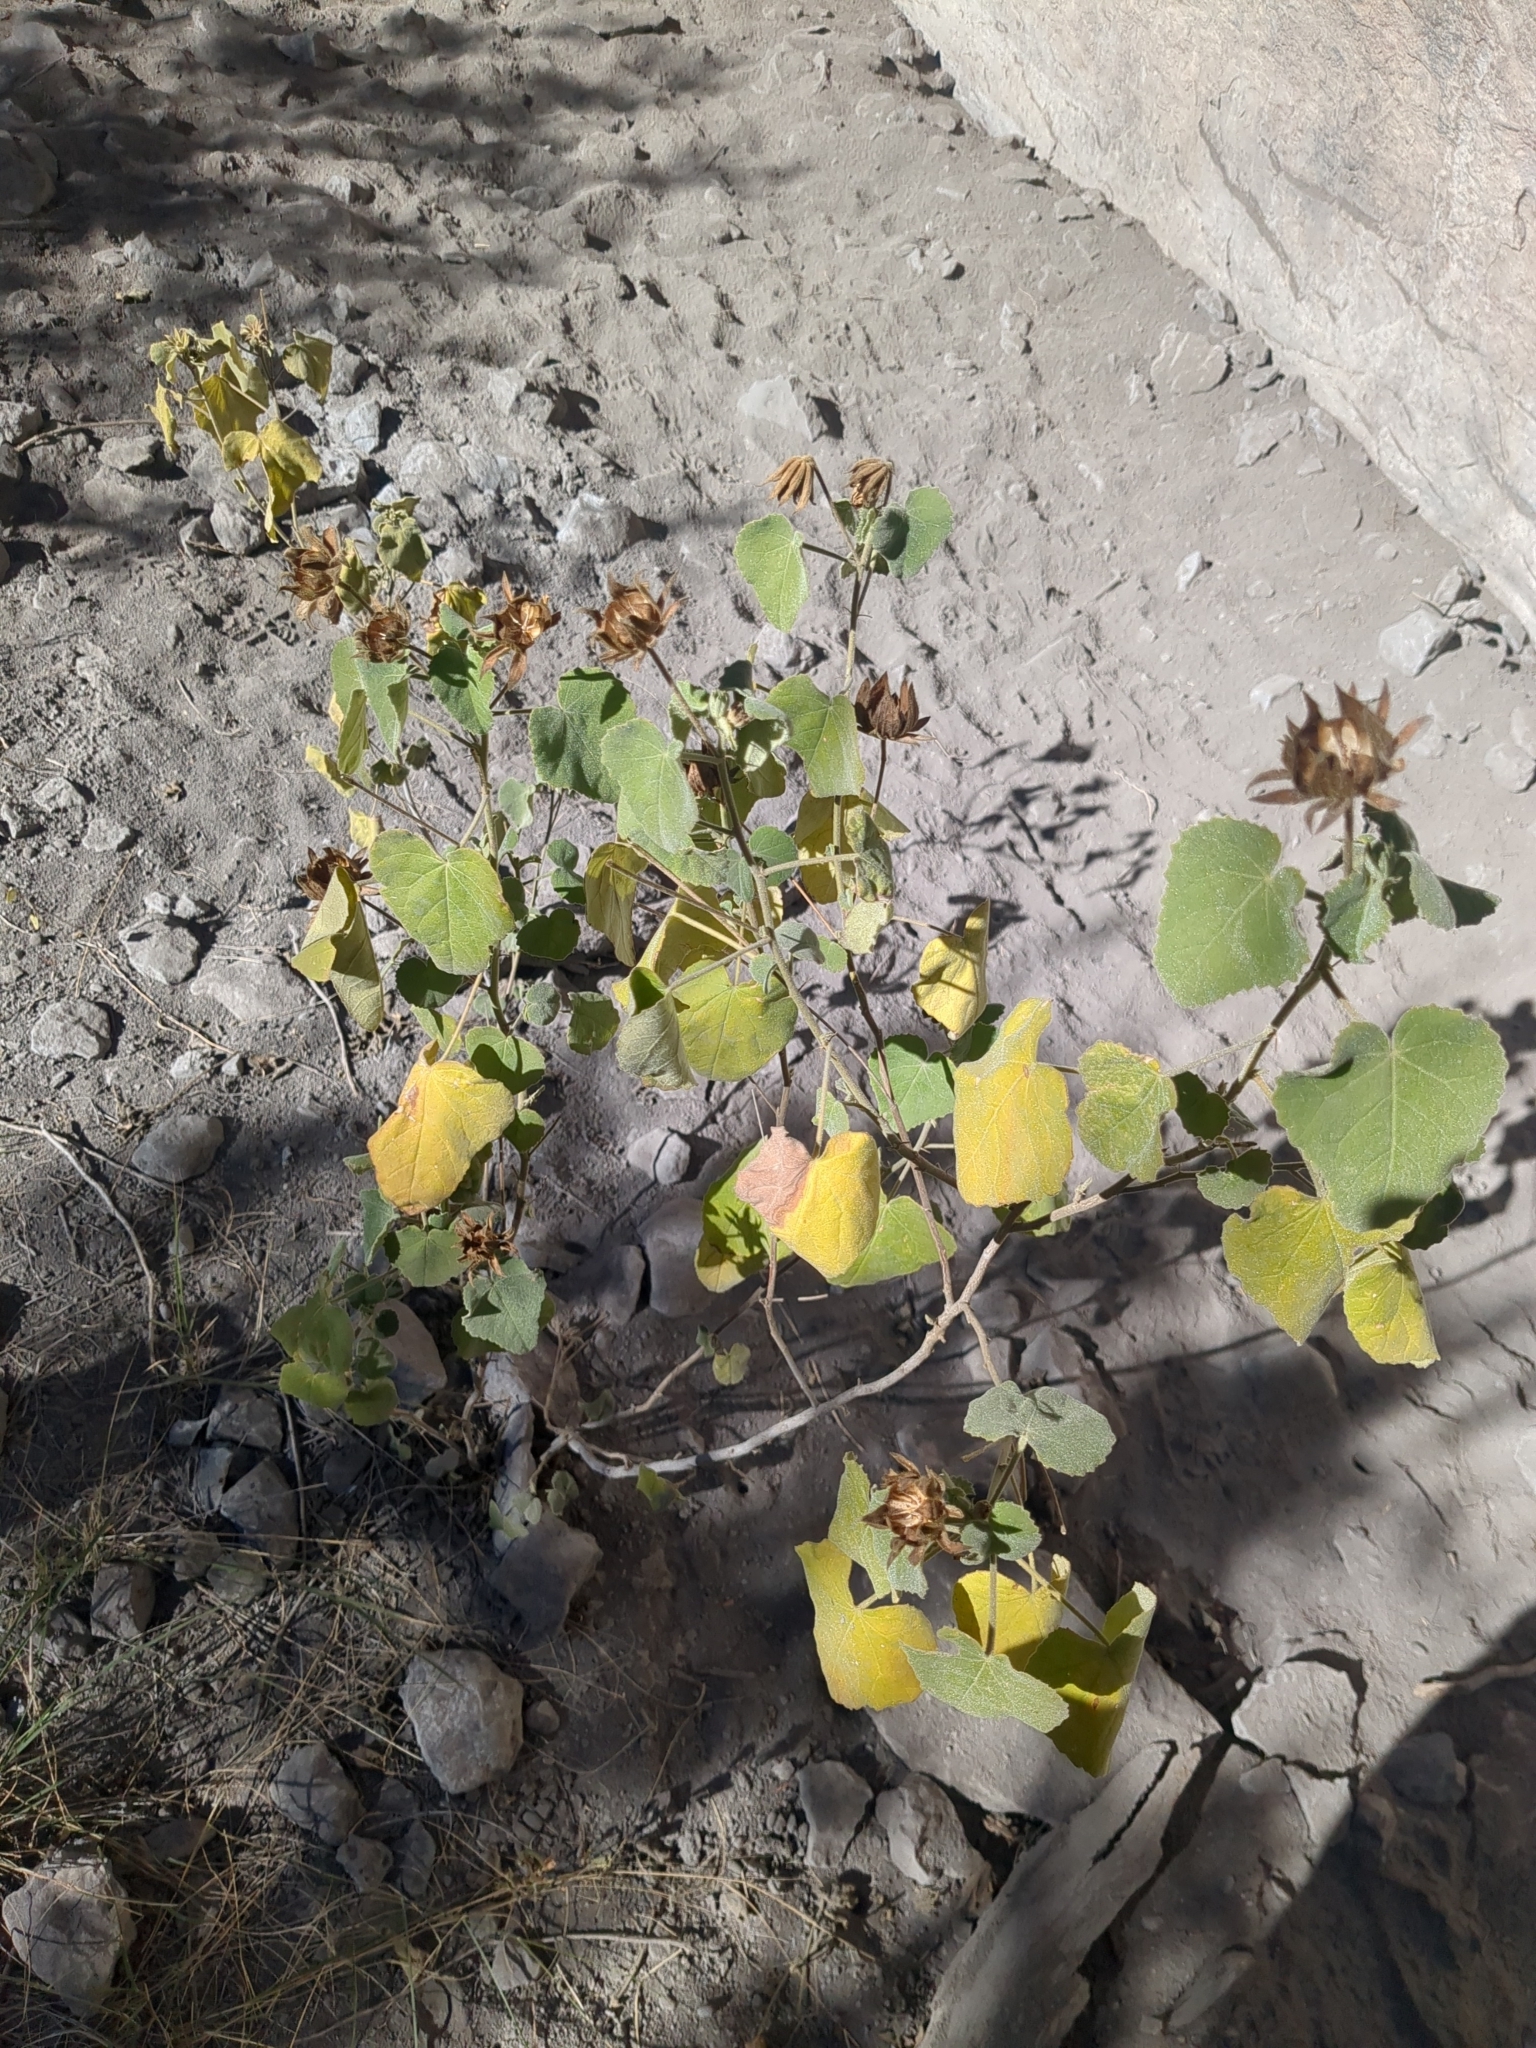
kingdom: Plantae
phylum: Tracheophyta
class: Magnoliopsida
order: Malvales
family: Malvaceae
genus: Hibiscus
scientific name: Hibiscus martianus
